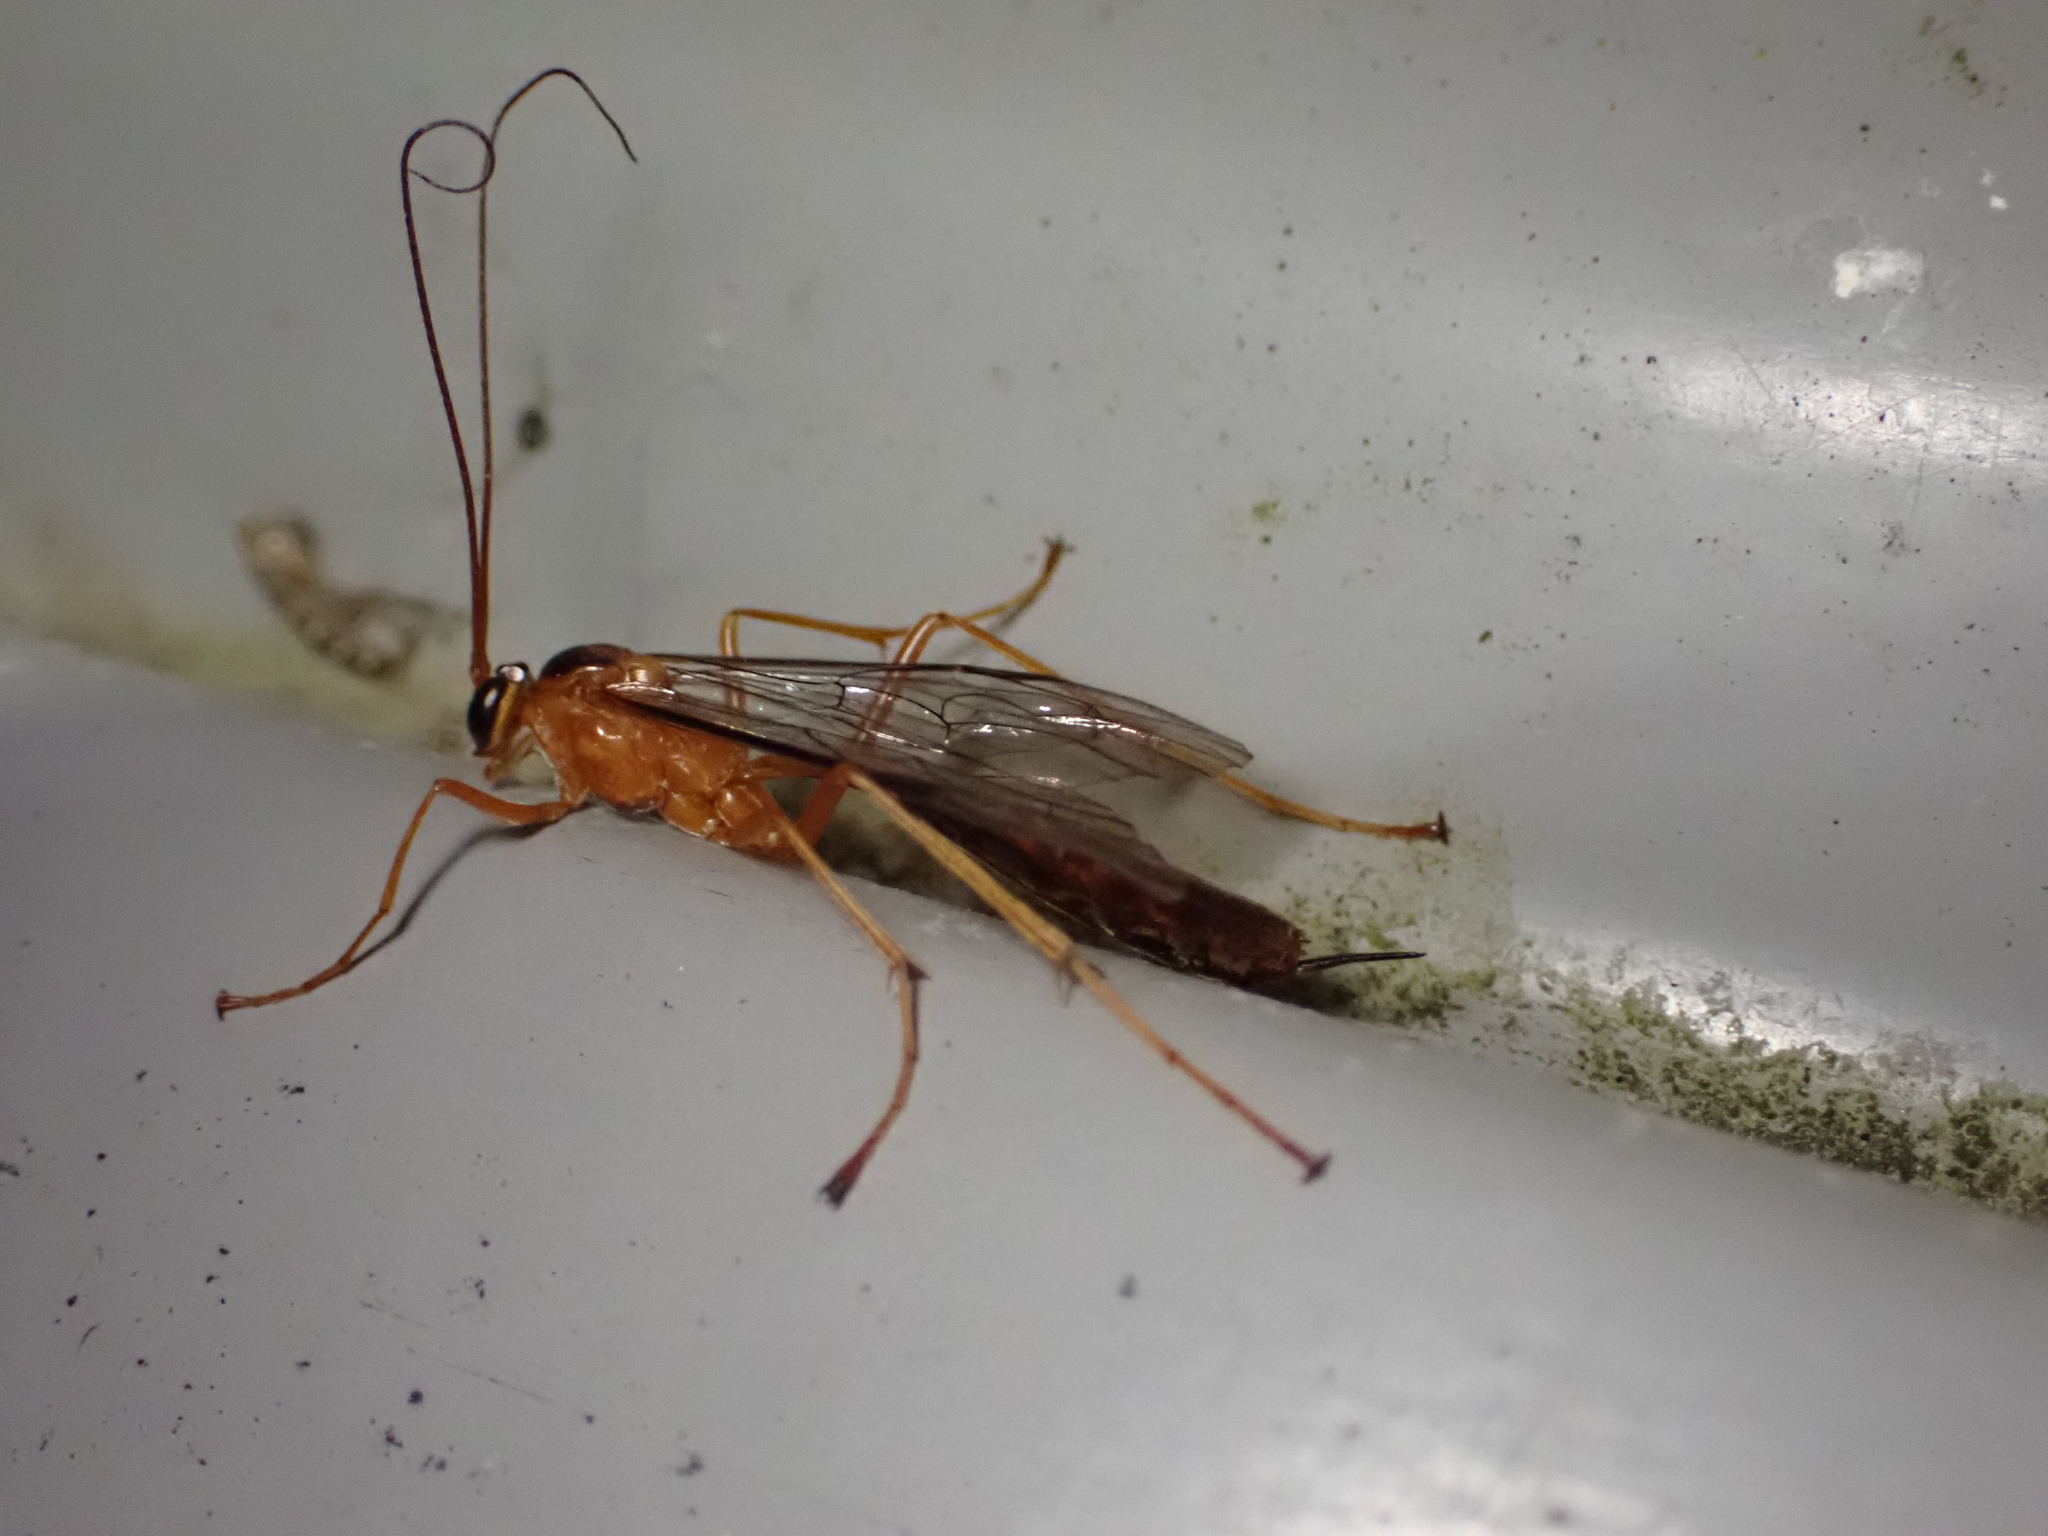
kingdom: Animalia
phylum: Arthropoda
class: Insecta
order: Hymenoptera
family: Ichneumonidae
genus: Netelia
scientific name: Netelia ephippiata
